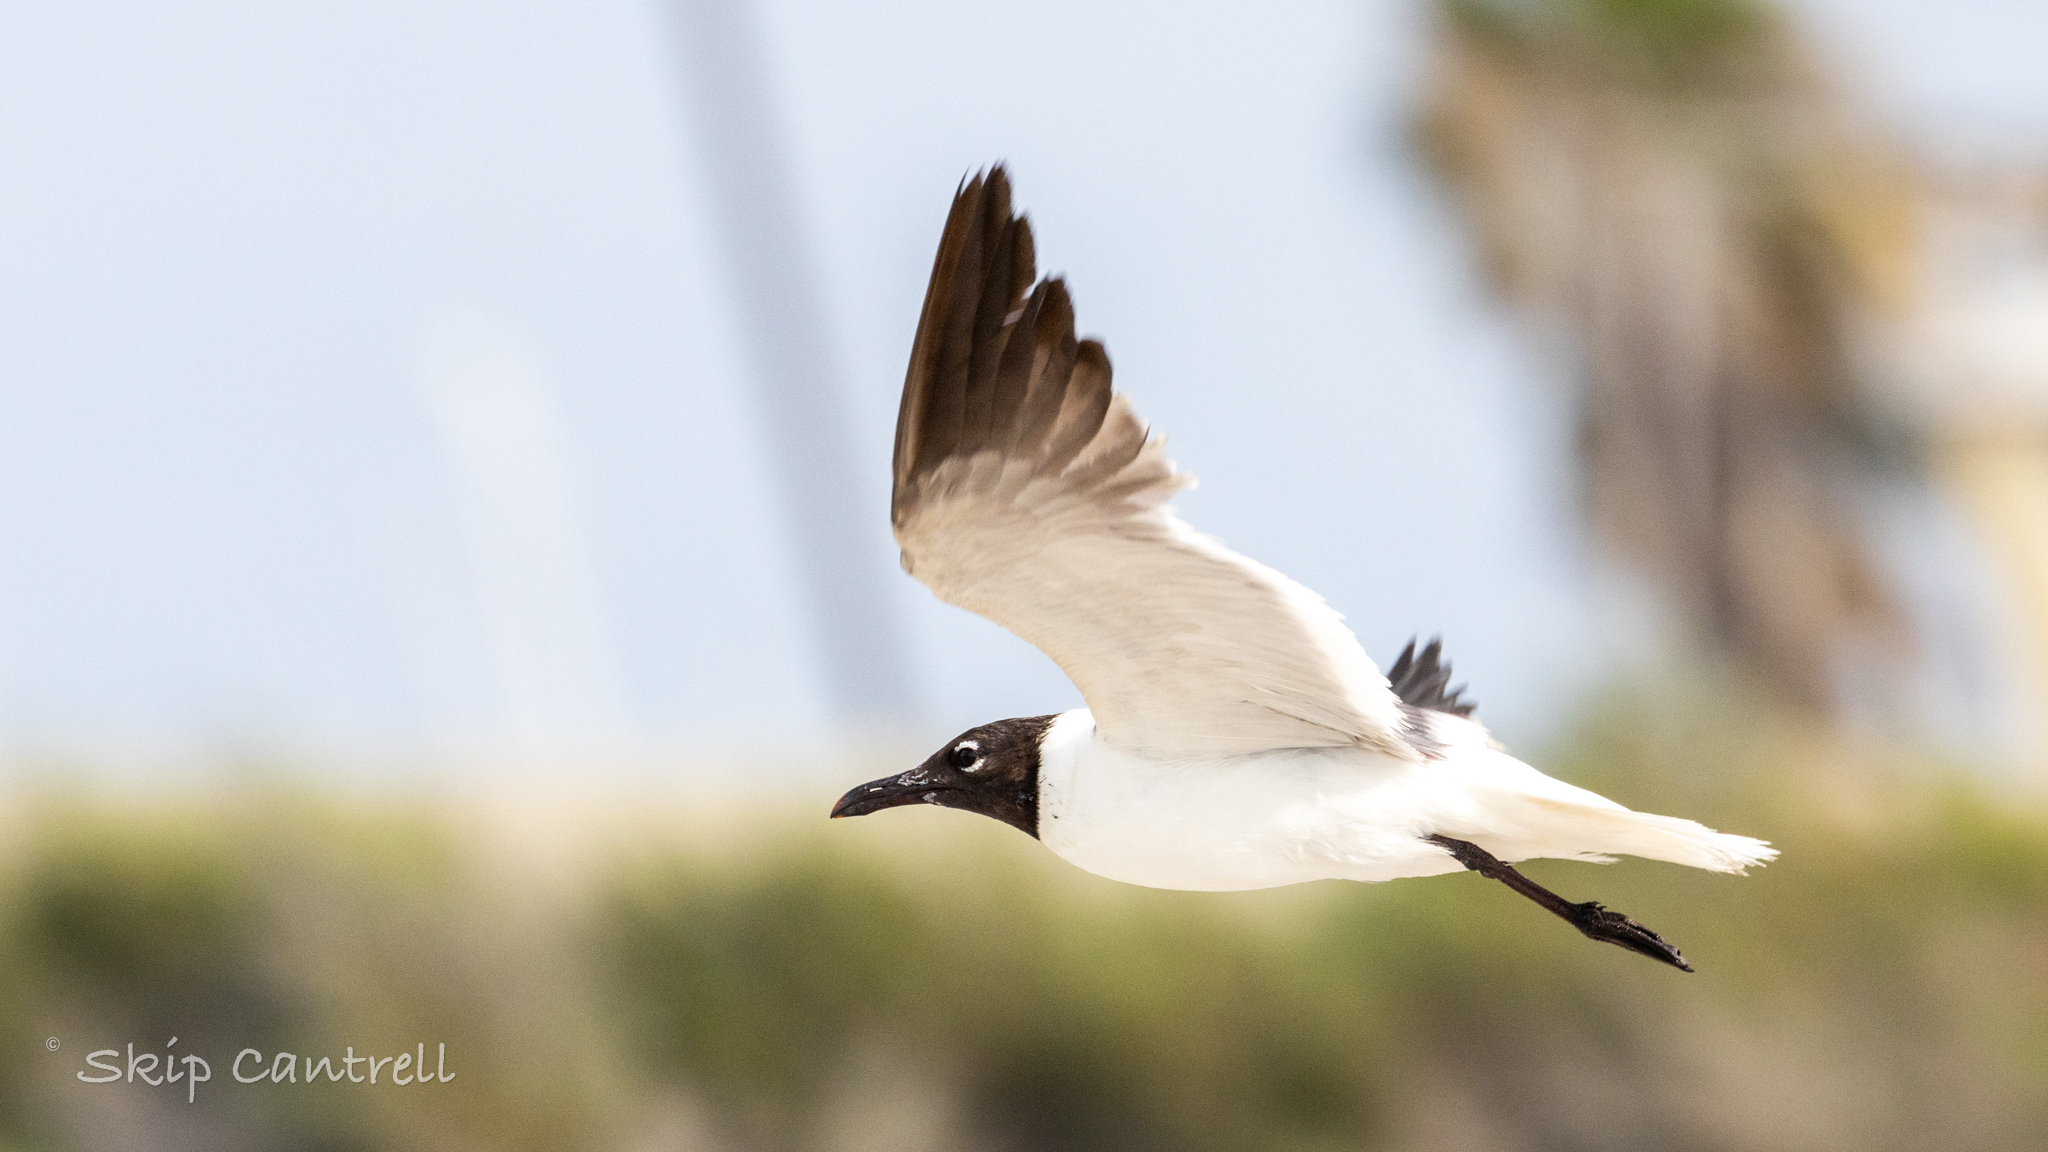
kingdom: Animalia
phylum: Chordata
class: Aves
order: Charadriiformes
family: Laridae
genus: Leucophaeus
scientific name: Leucophaeus atricilla
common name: Laughing gull
